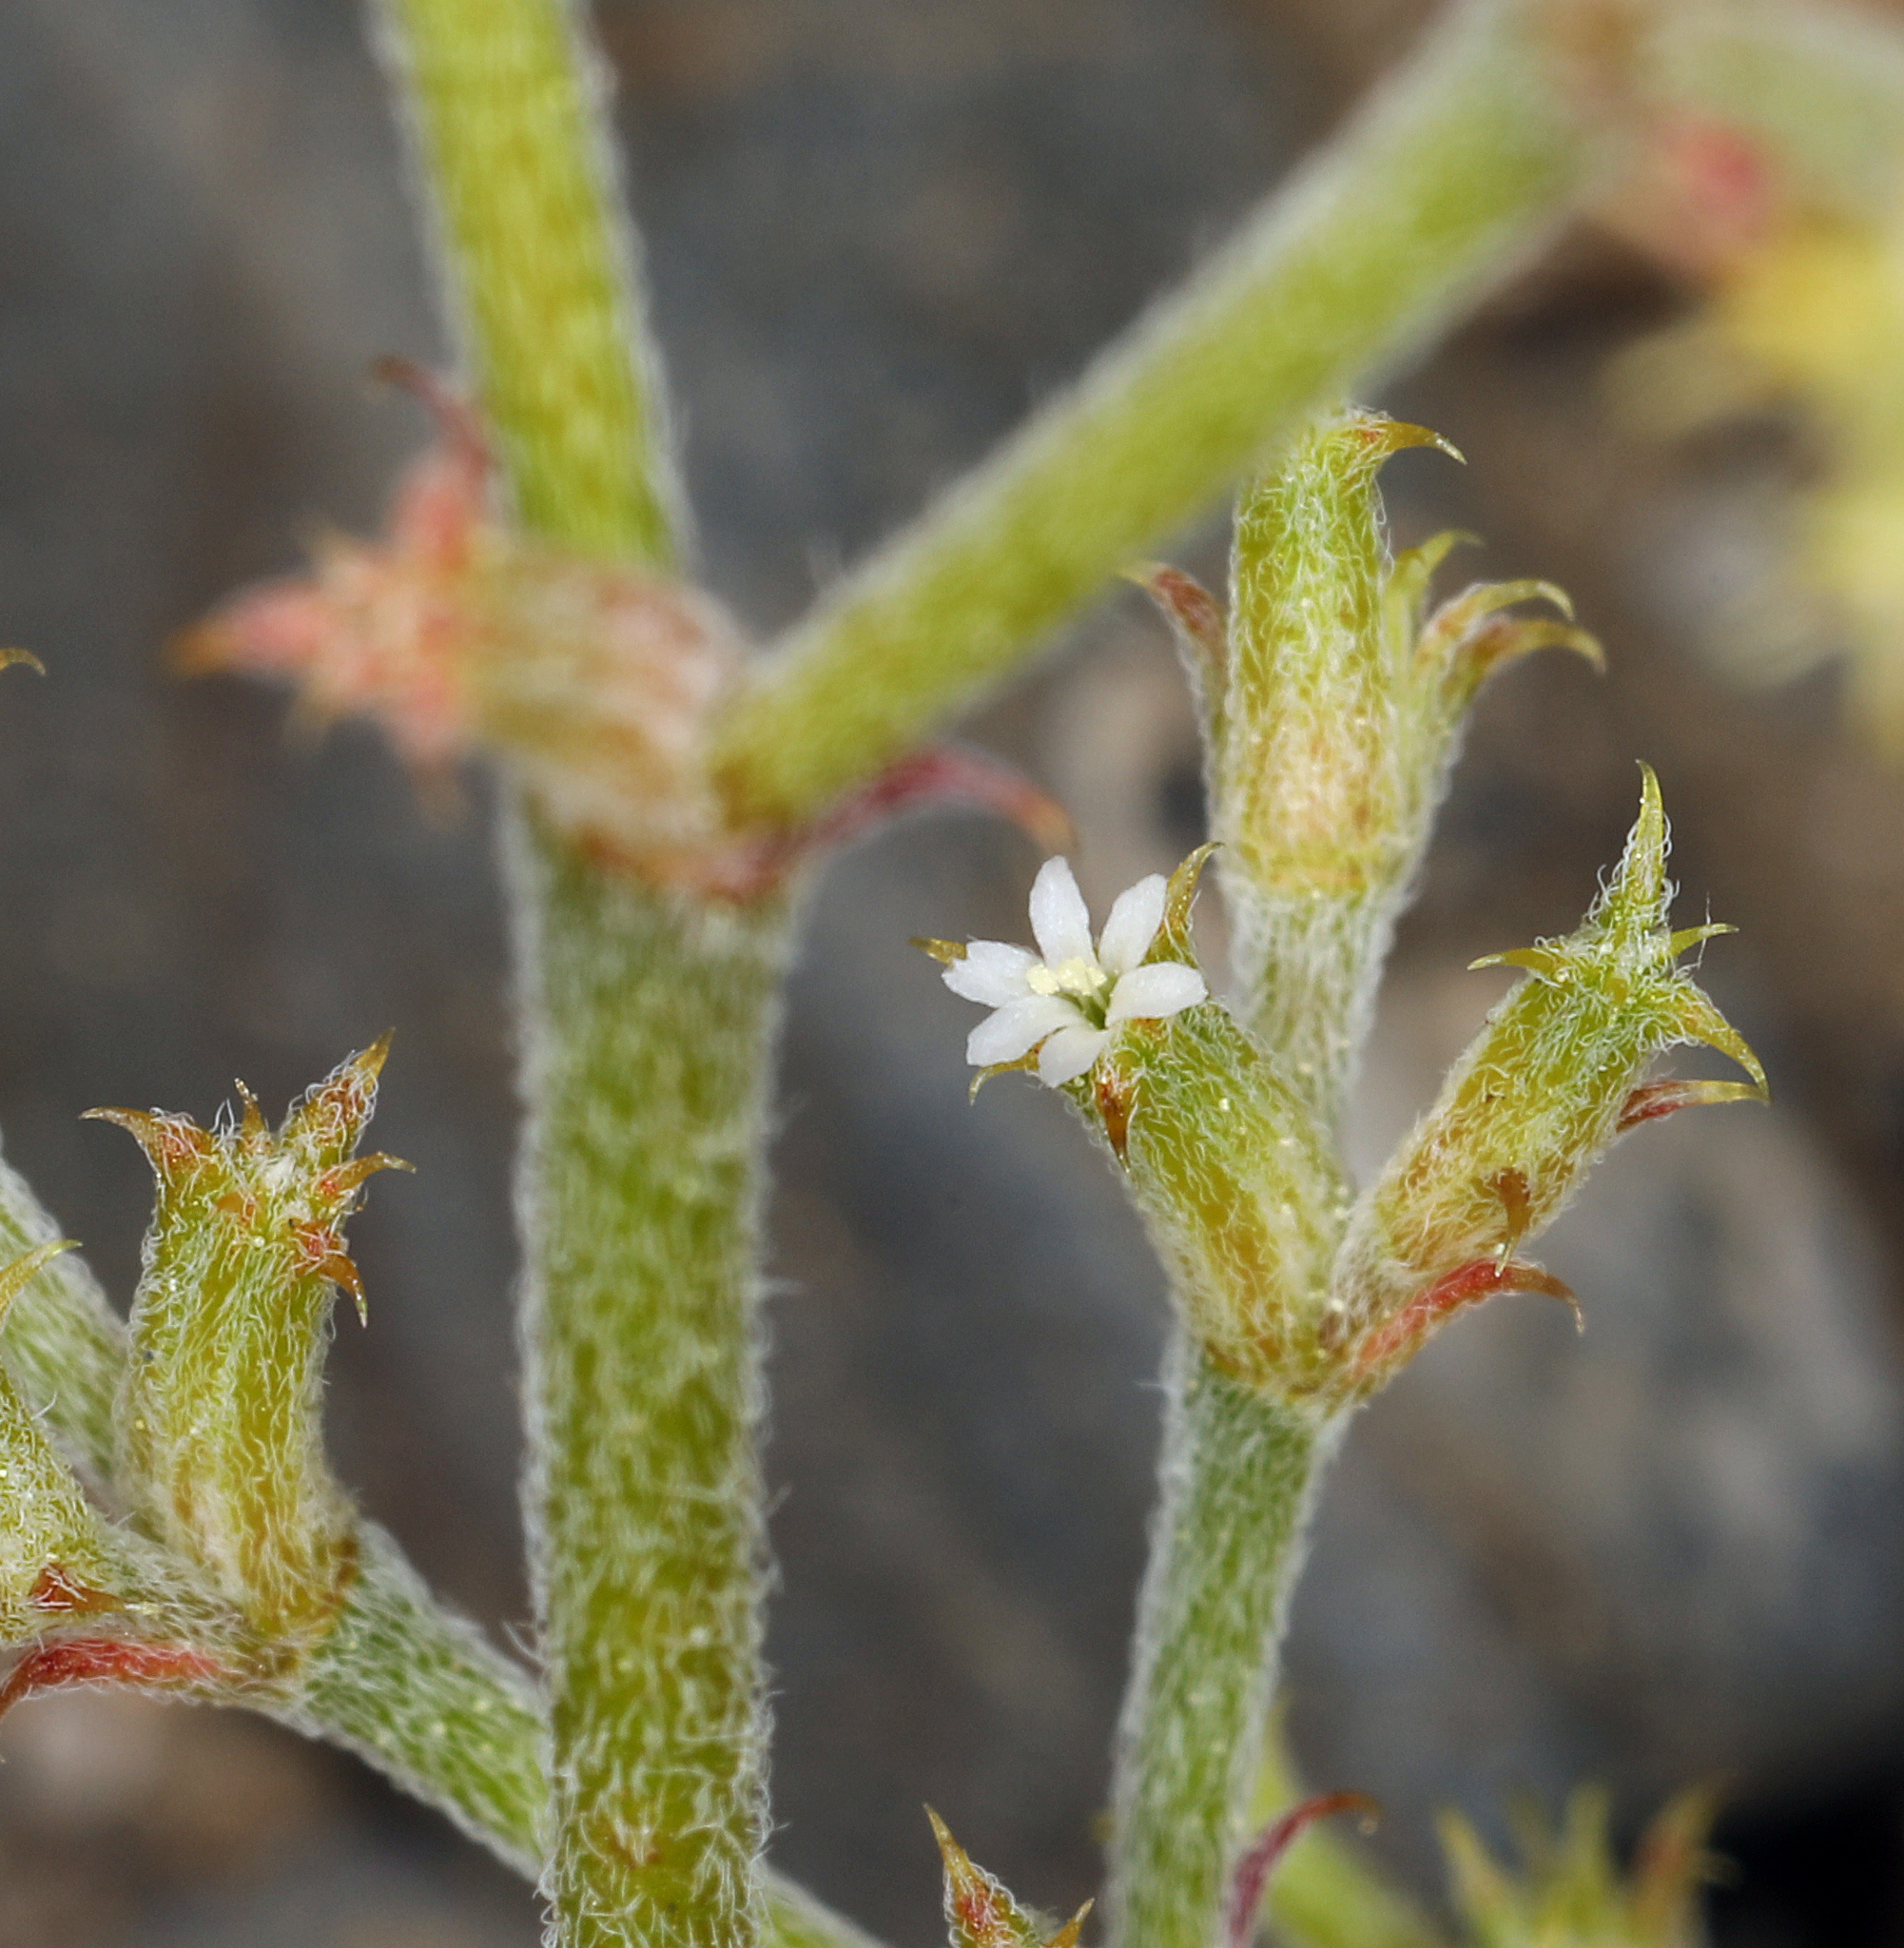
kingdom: Plantae
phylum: Tracheophyta
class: Magnoliopsida
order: Caryophyllales
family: Polygonaceae
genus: Chorizanthe
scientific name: Chorizanthe brevicornu
